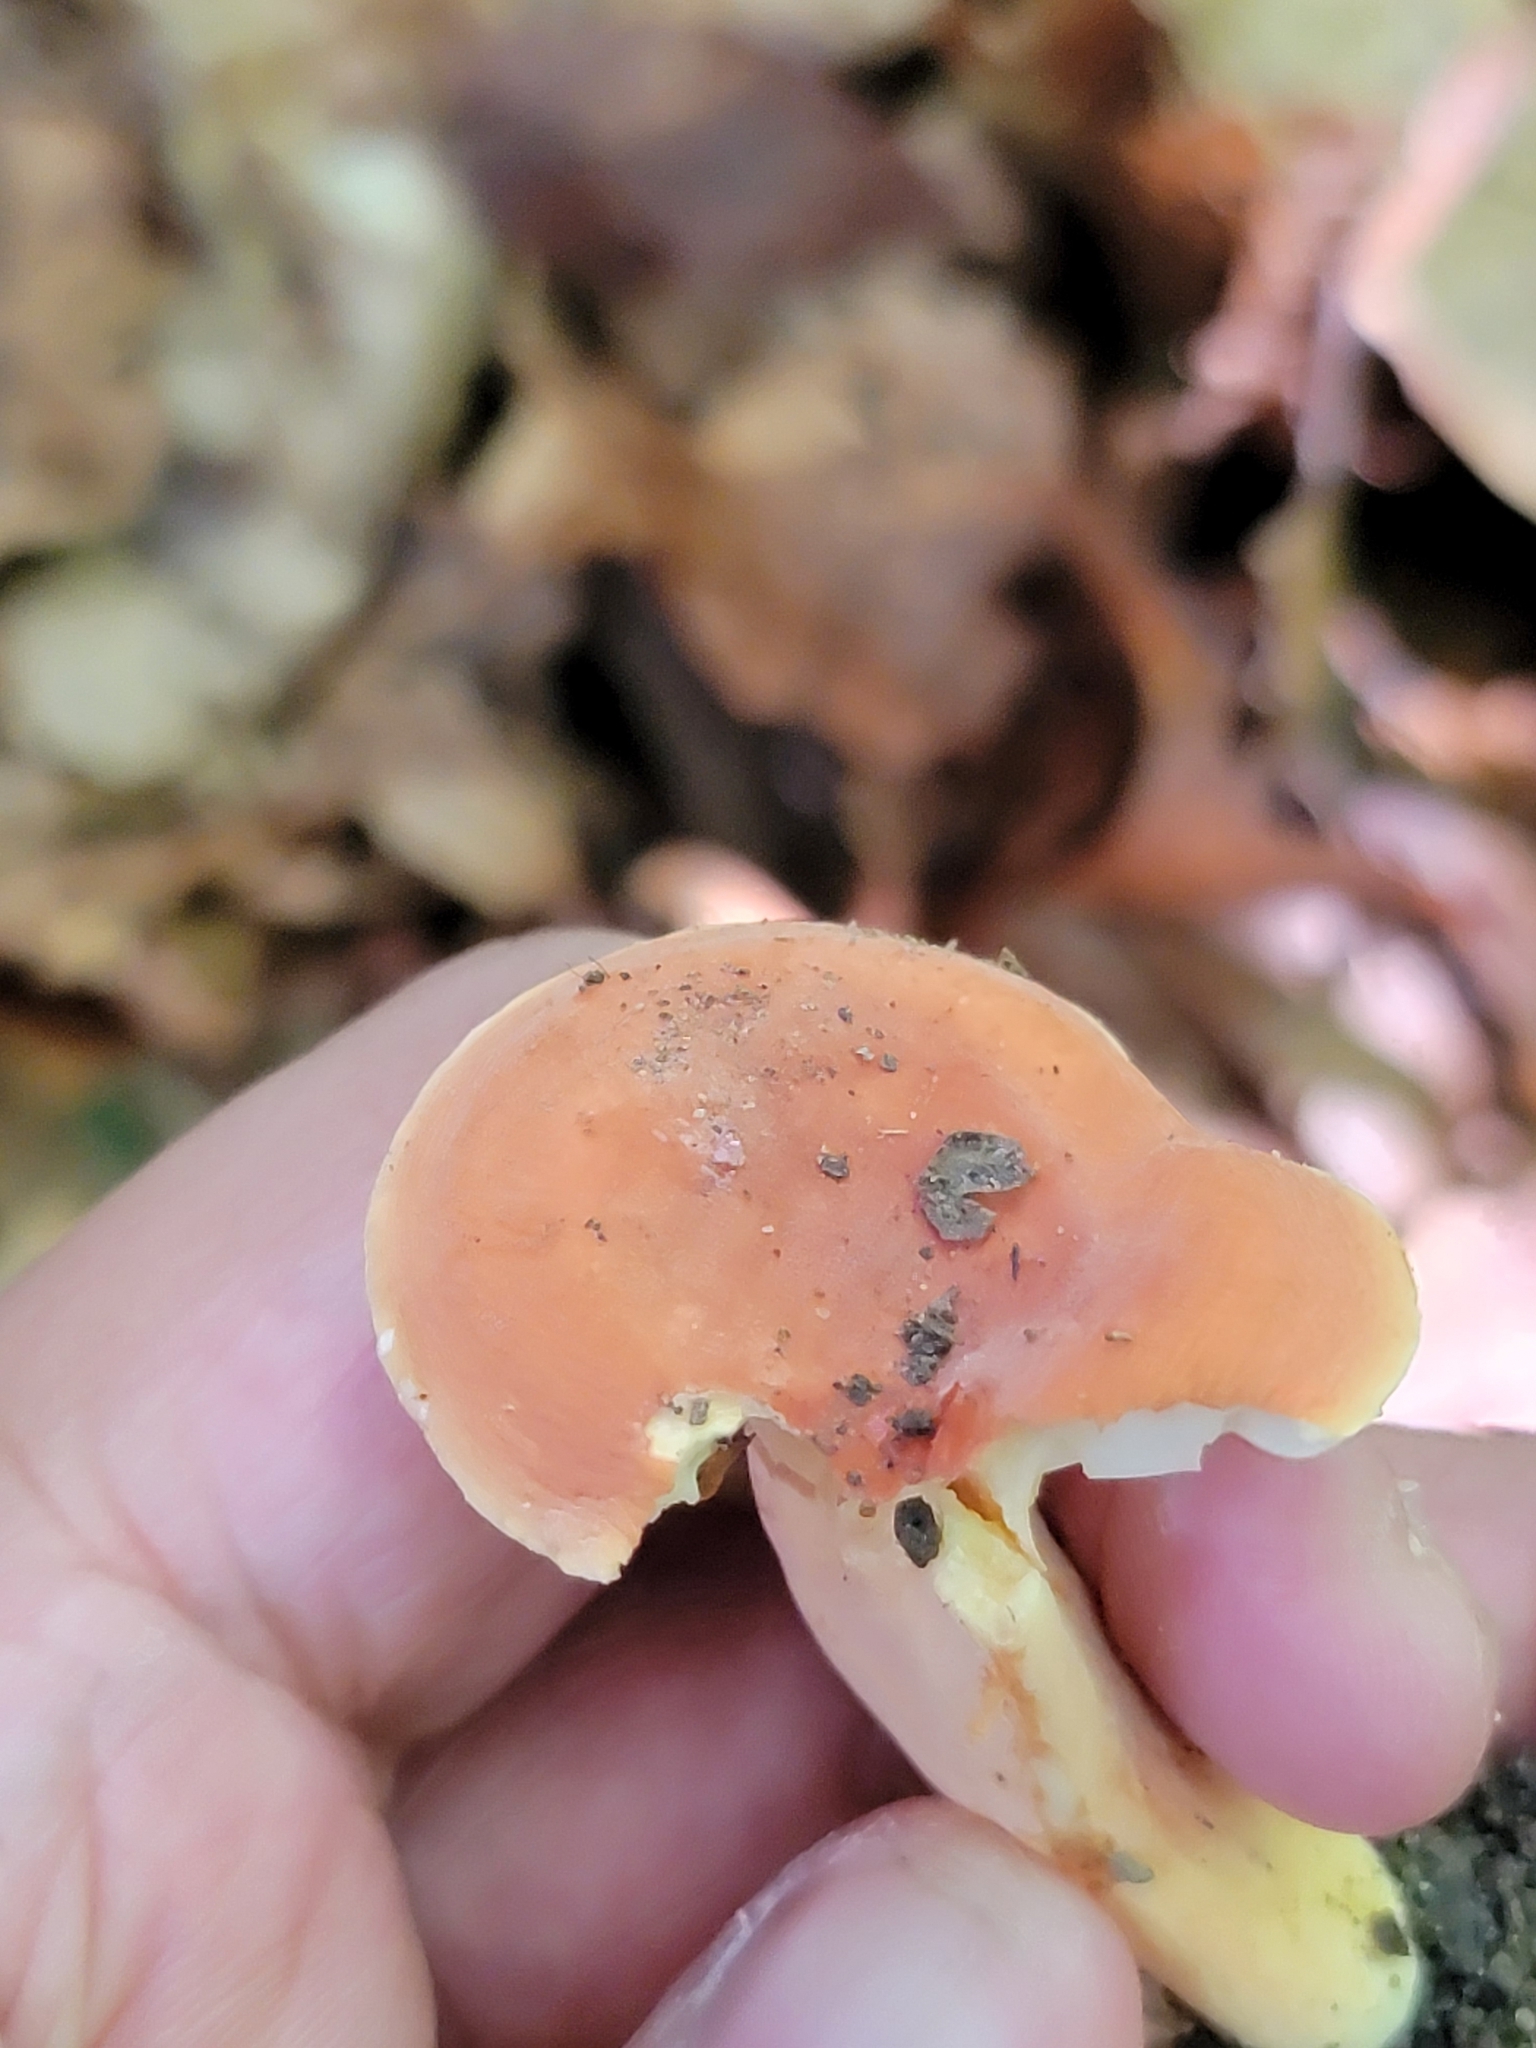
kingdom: Fungi
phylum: Basidiomycota
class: Agaricomycetes
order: Russulales
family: Russulaceae
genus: Lactarius
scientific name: Lactarius hygrophoroides
